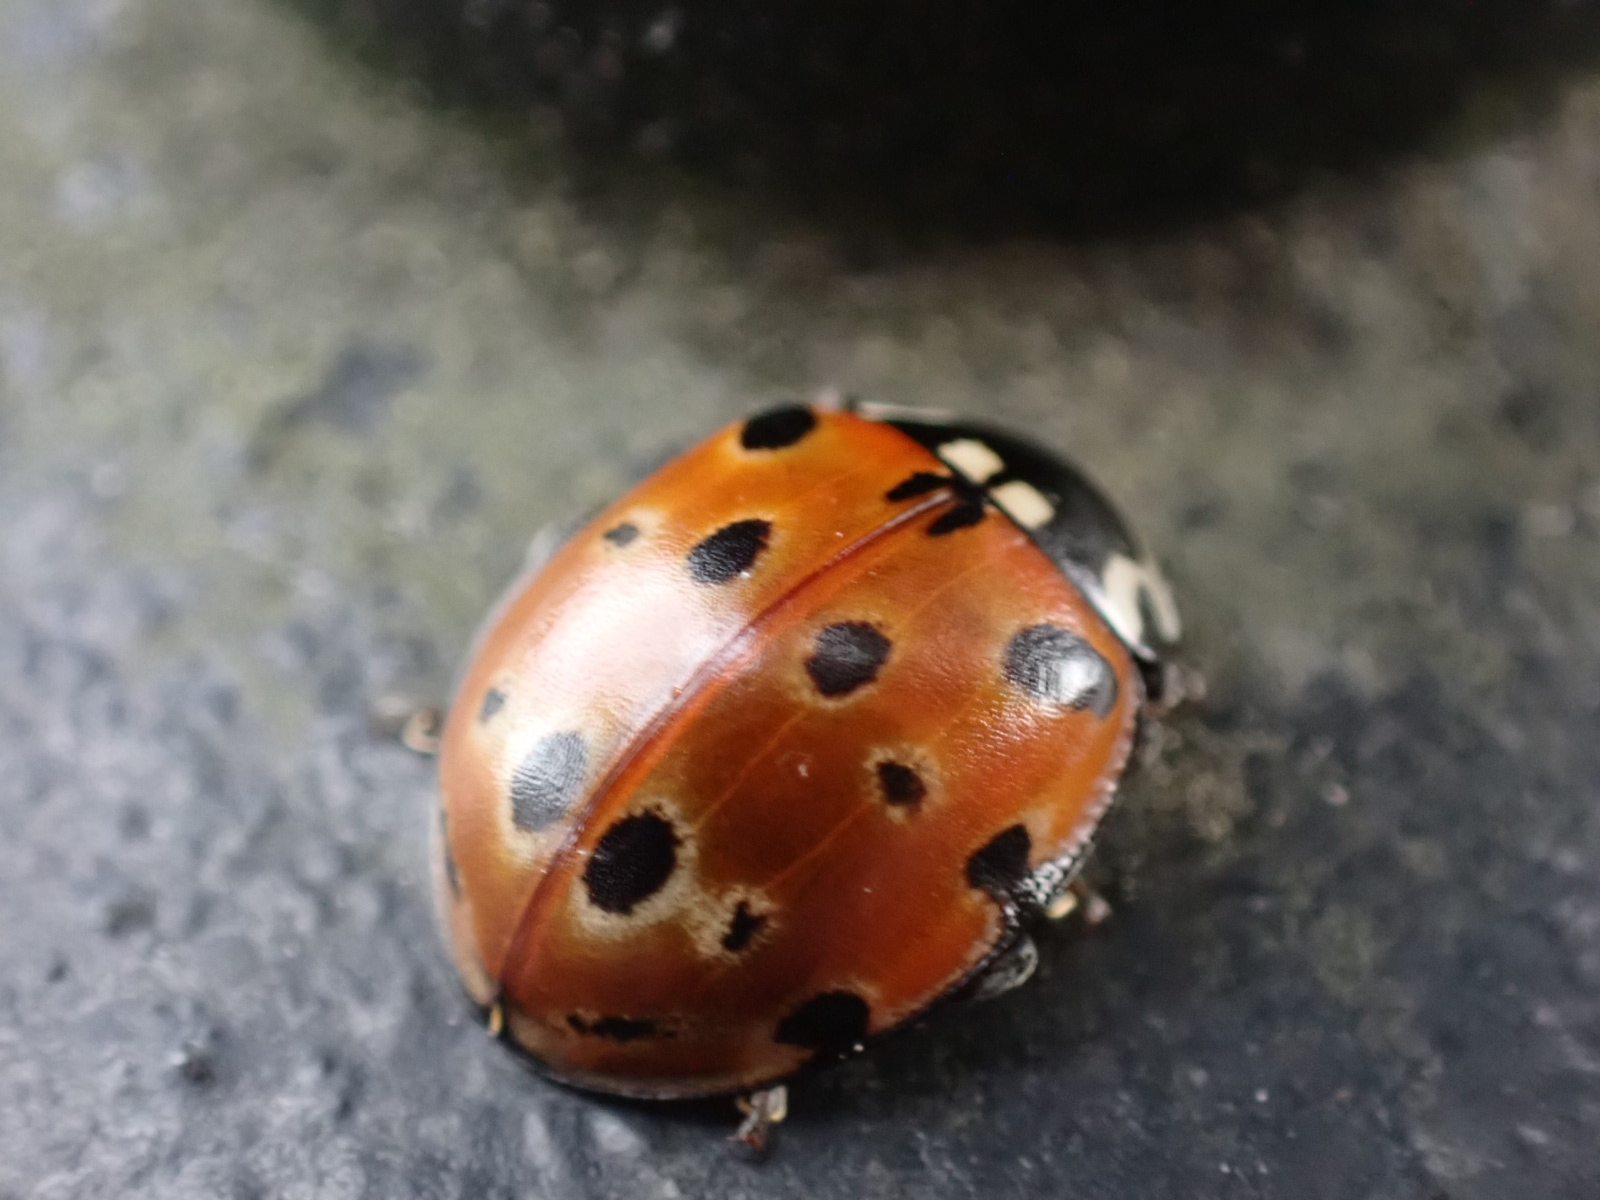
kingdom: Animalia
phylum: Arthropoda
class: Insecta
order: Coleoptera
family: Coccinellidae
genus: Anatis
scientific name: Anatis ocellata
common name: Eyed ladybird
